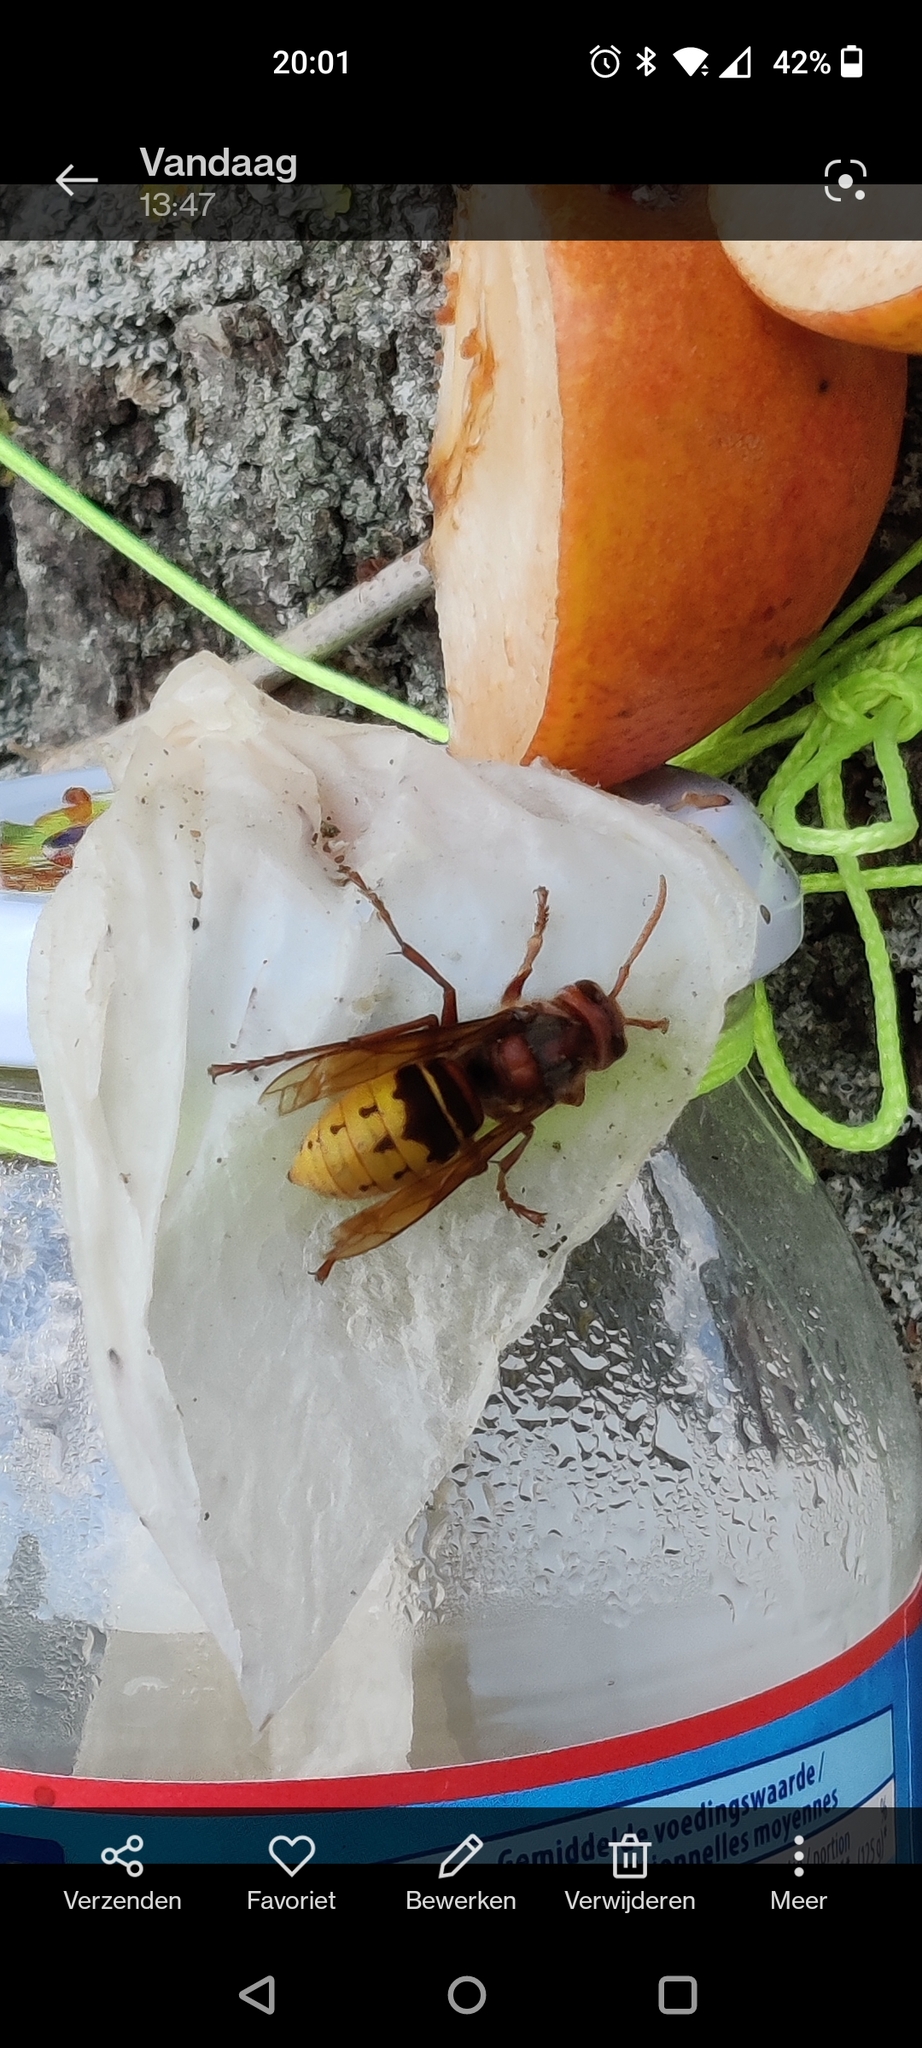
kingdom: Animalia
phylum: Arthropoda
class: Insecta
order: Hymenoptera
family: Vespidae
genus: Vespa
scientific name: Vespa crabro
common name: Hornet
